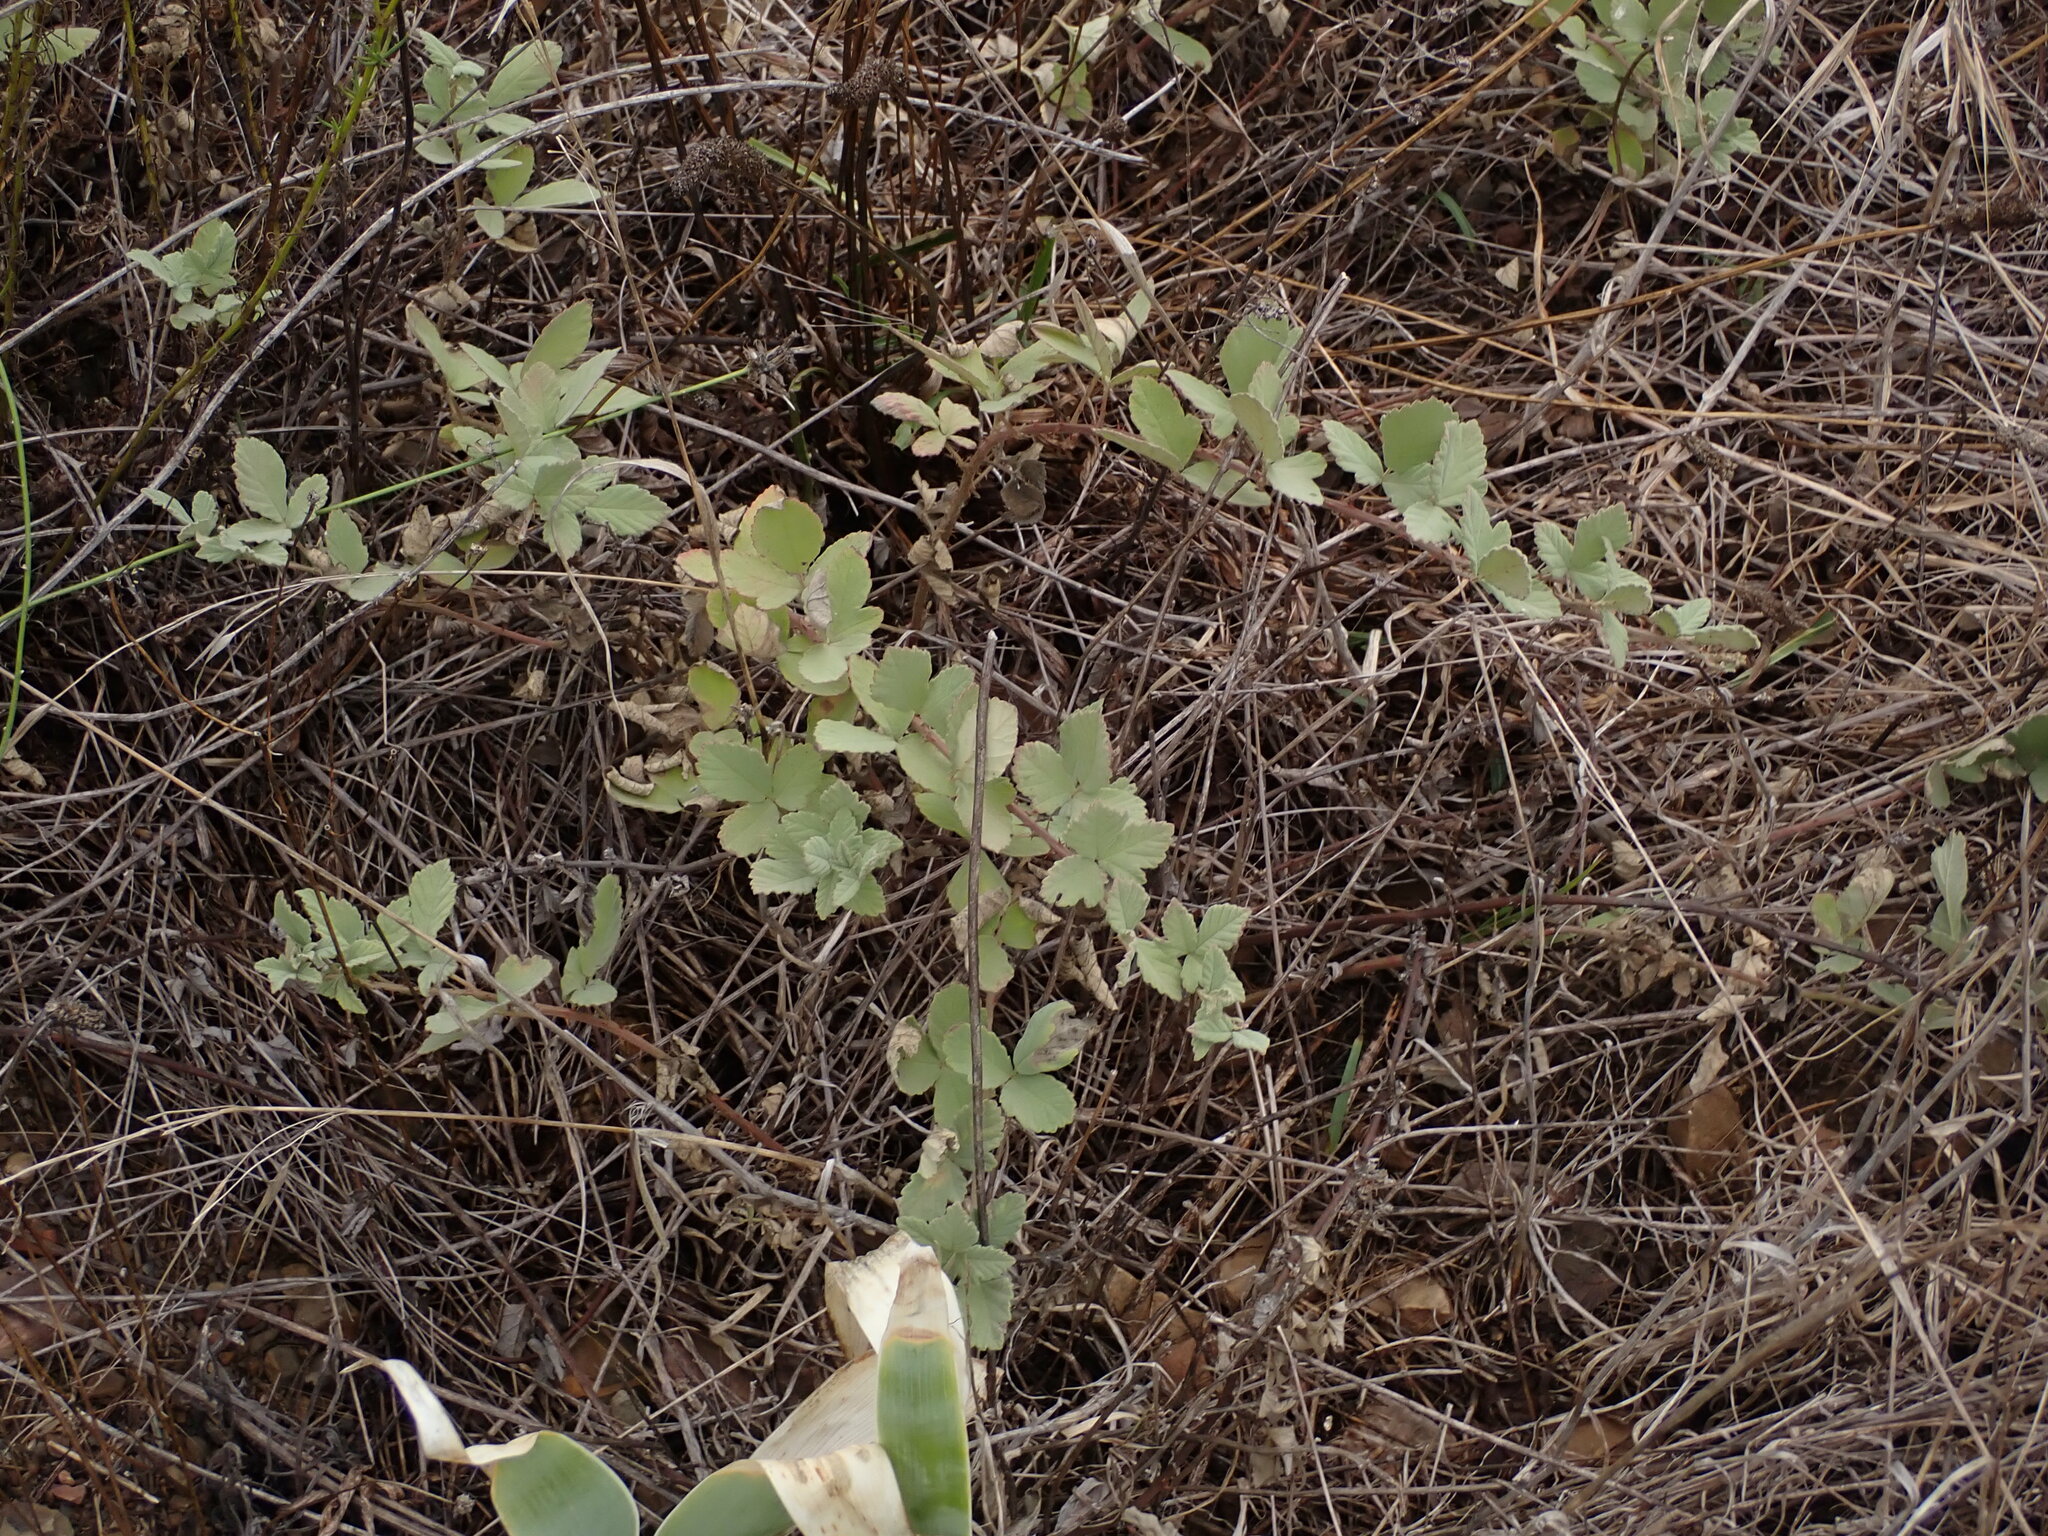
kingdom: Plantae
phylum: Tracheophyta
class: Magnoliopsida
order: Rosales
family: Rosaceae
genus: Rubus
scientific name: Rubus canescens
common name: Wooly blackberry
